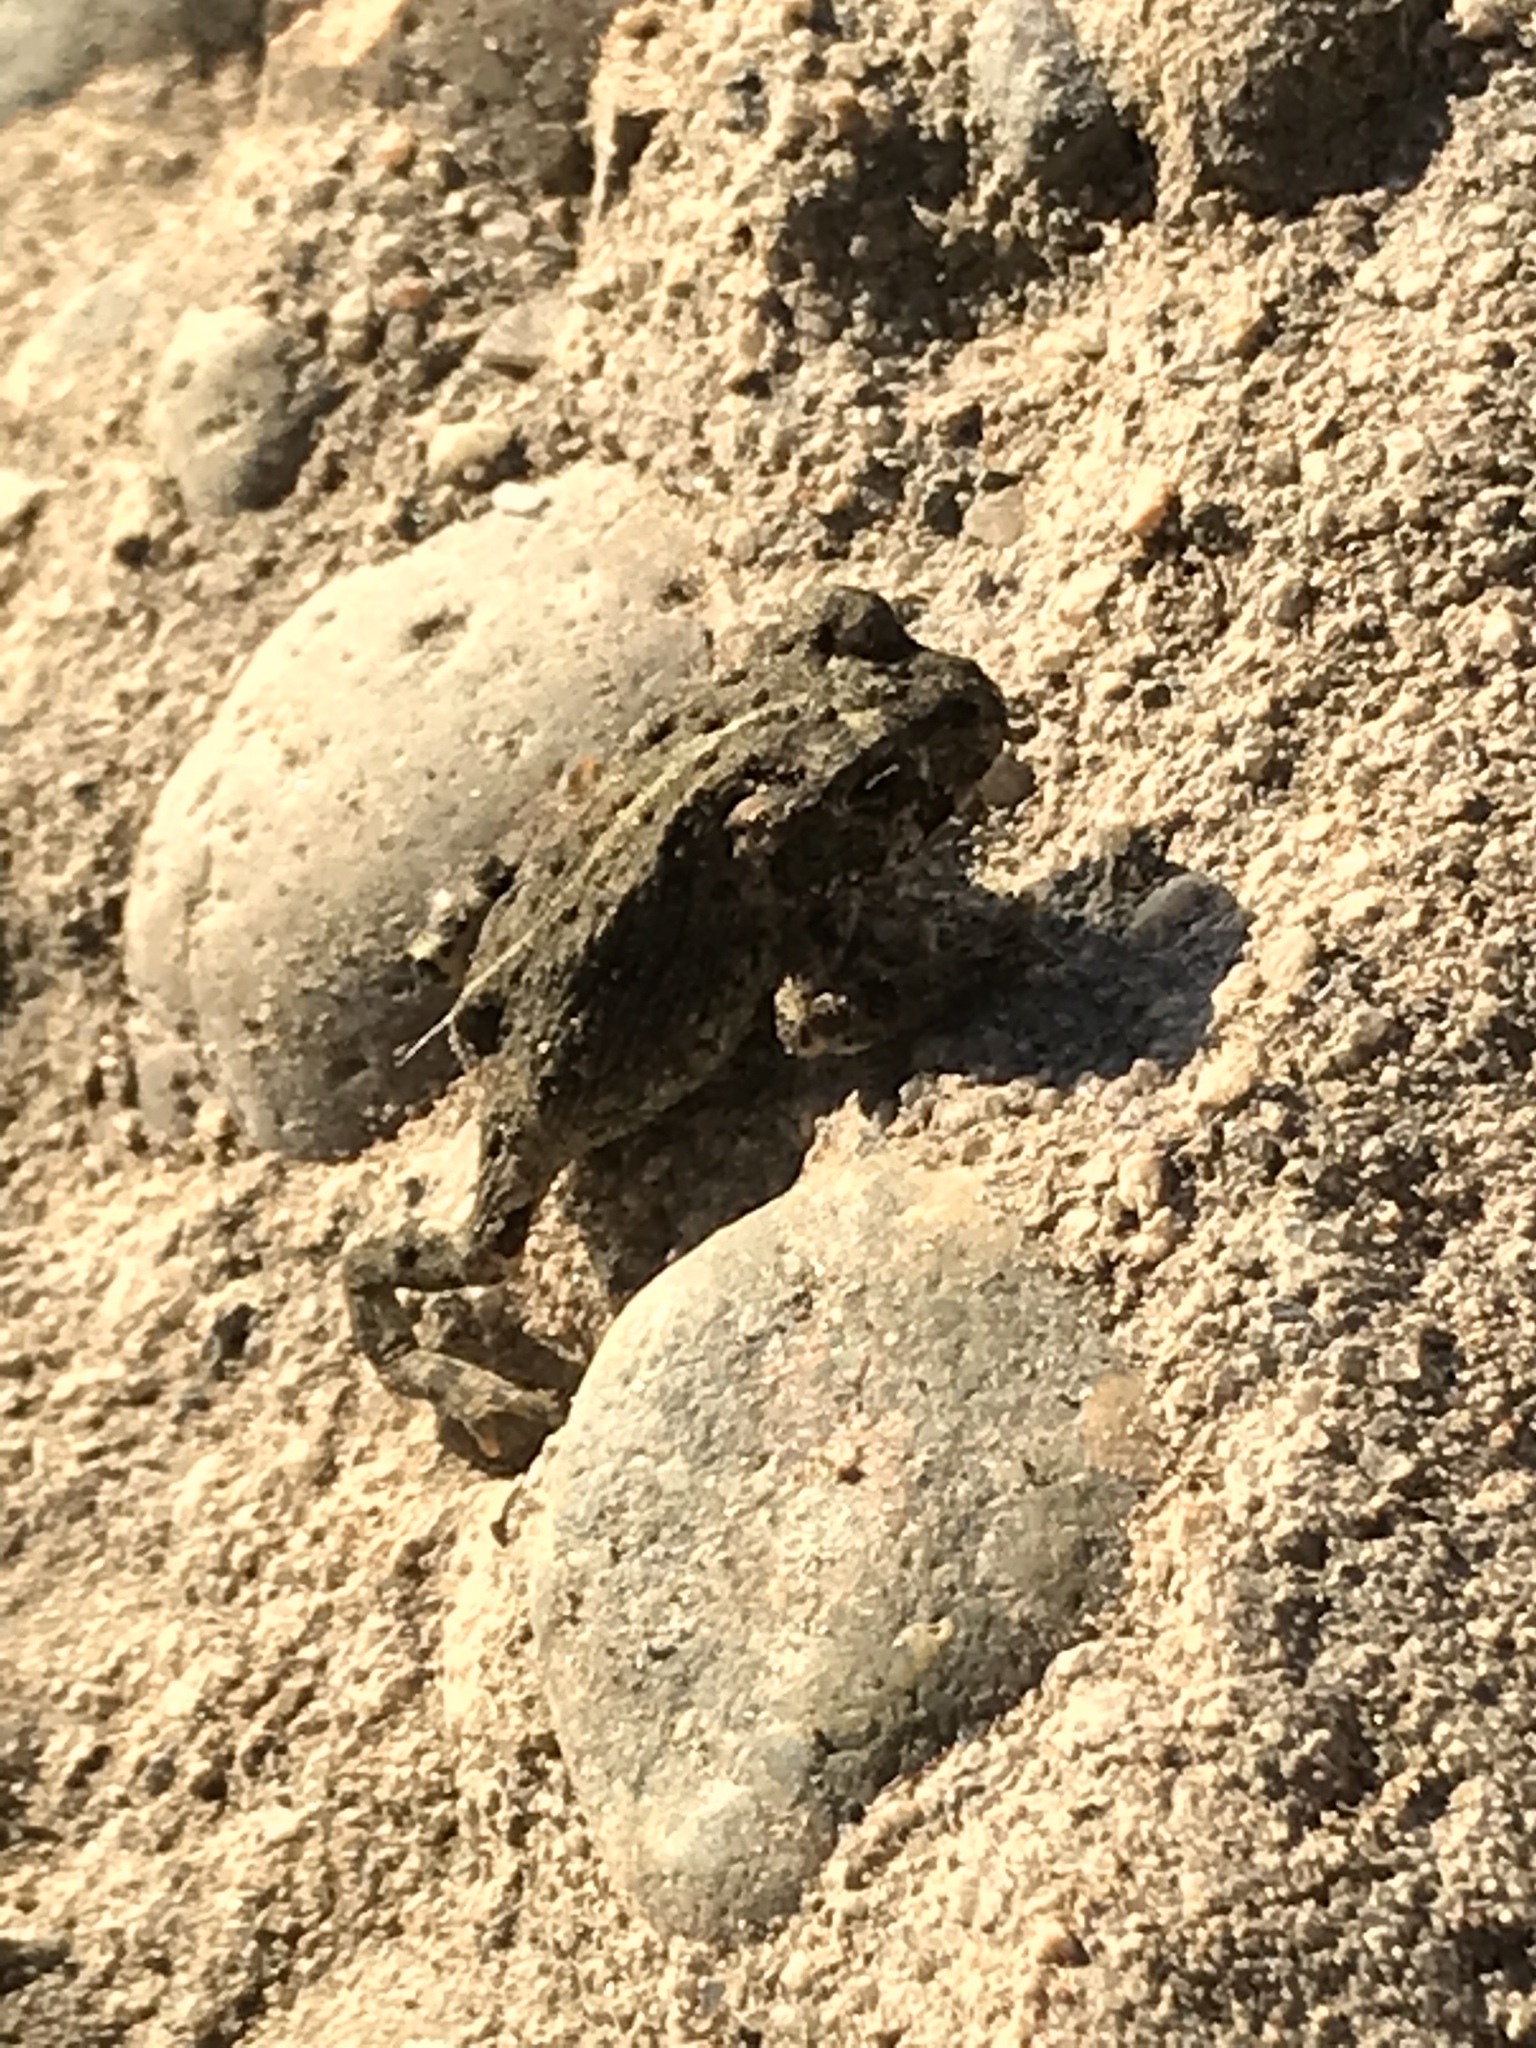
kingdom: Animalia
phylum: Chordata
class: Amphibia
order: Anura
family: Bufonidae
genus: Anaxyrus
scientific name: Anaxyrus boreas
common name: Western toad
